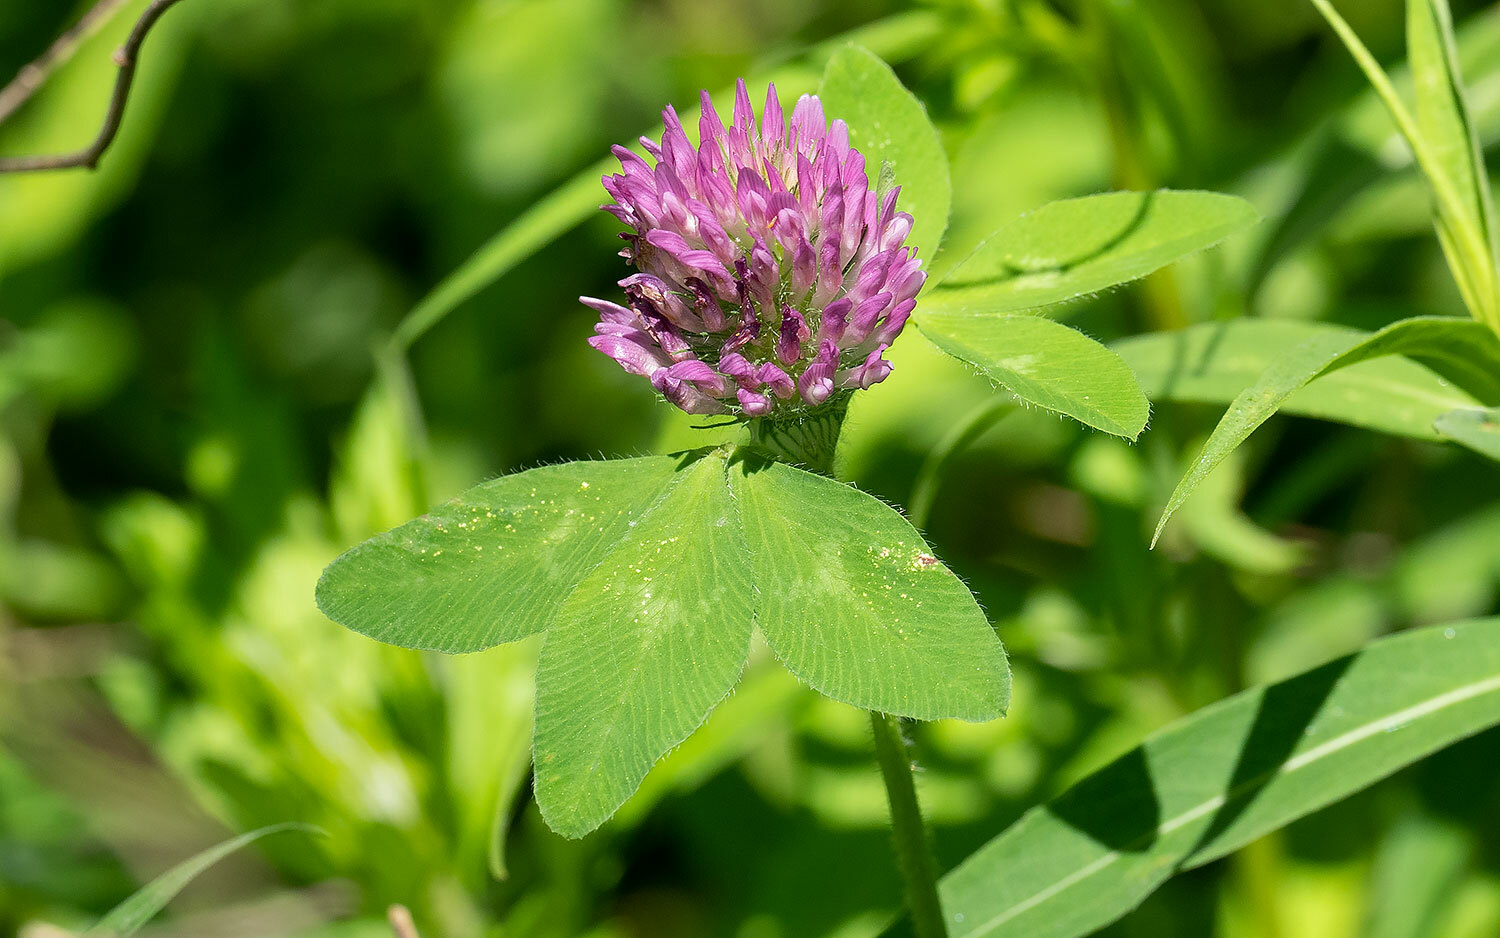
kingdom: Plantae
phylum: Tracheophyta
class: Magnoliopsida
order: Fabales
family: Fabaceae
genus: Trifolium
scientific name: Trifolium pratense
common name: Red clover
